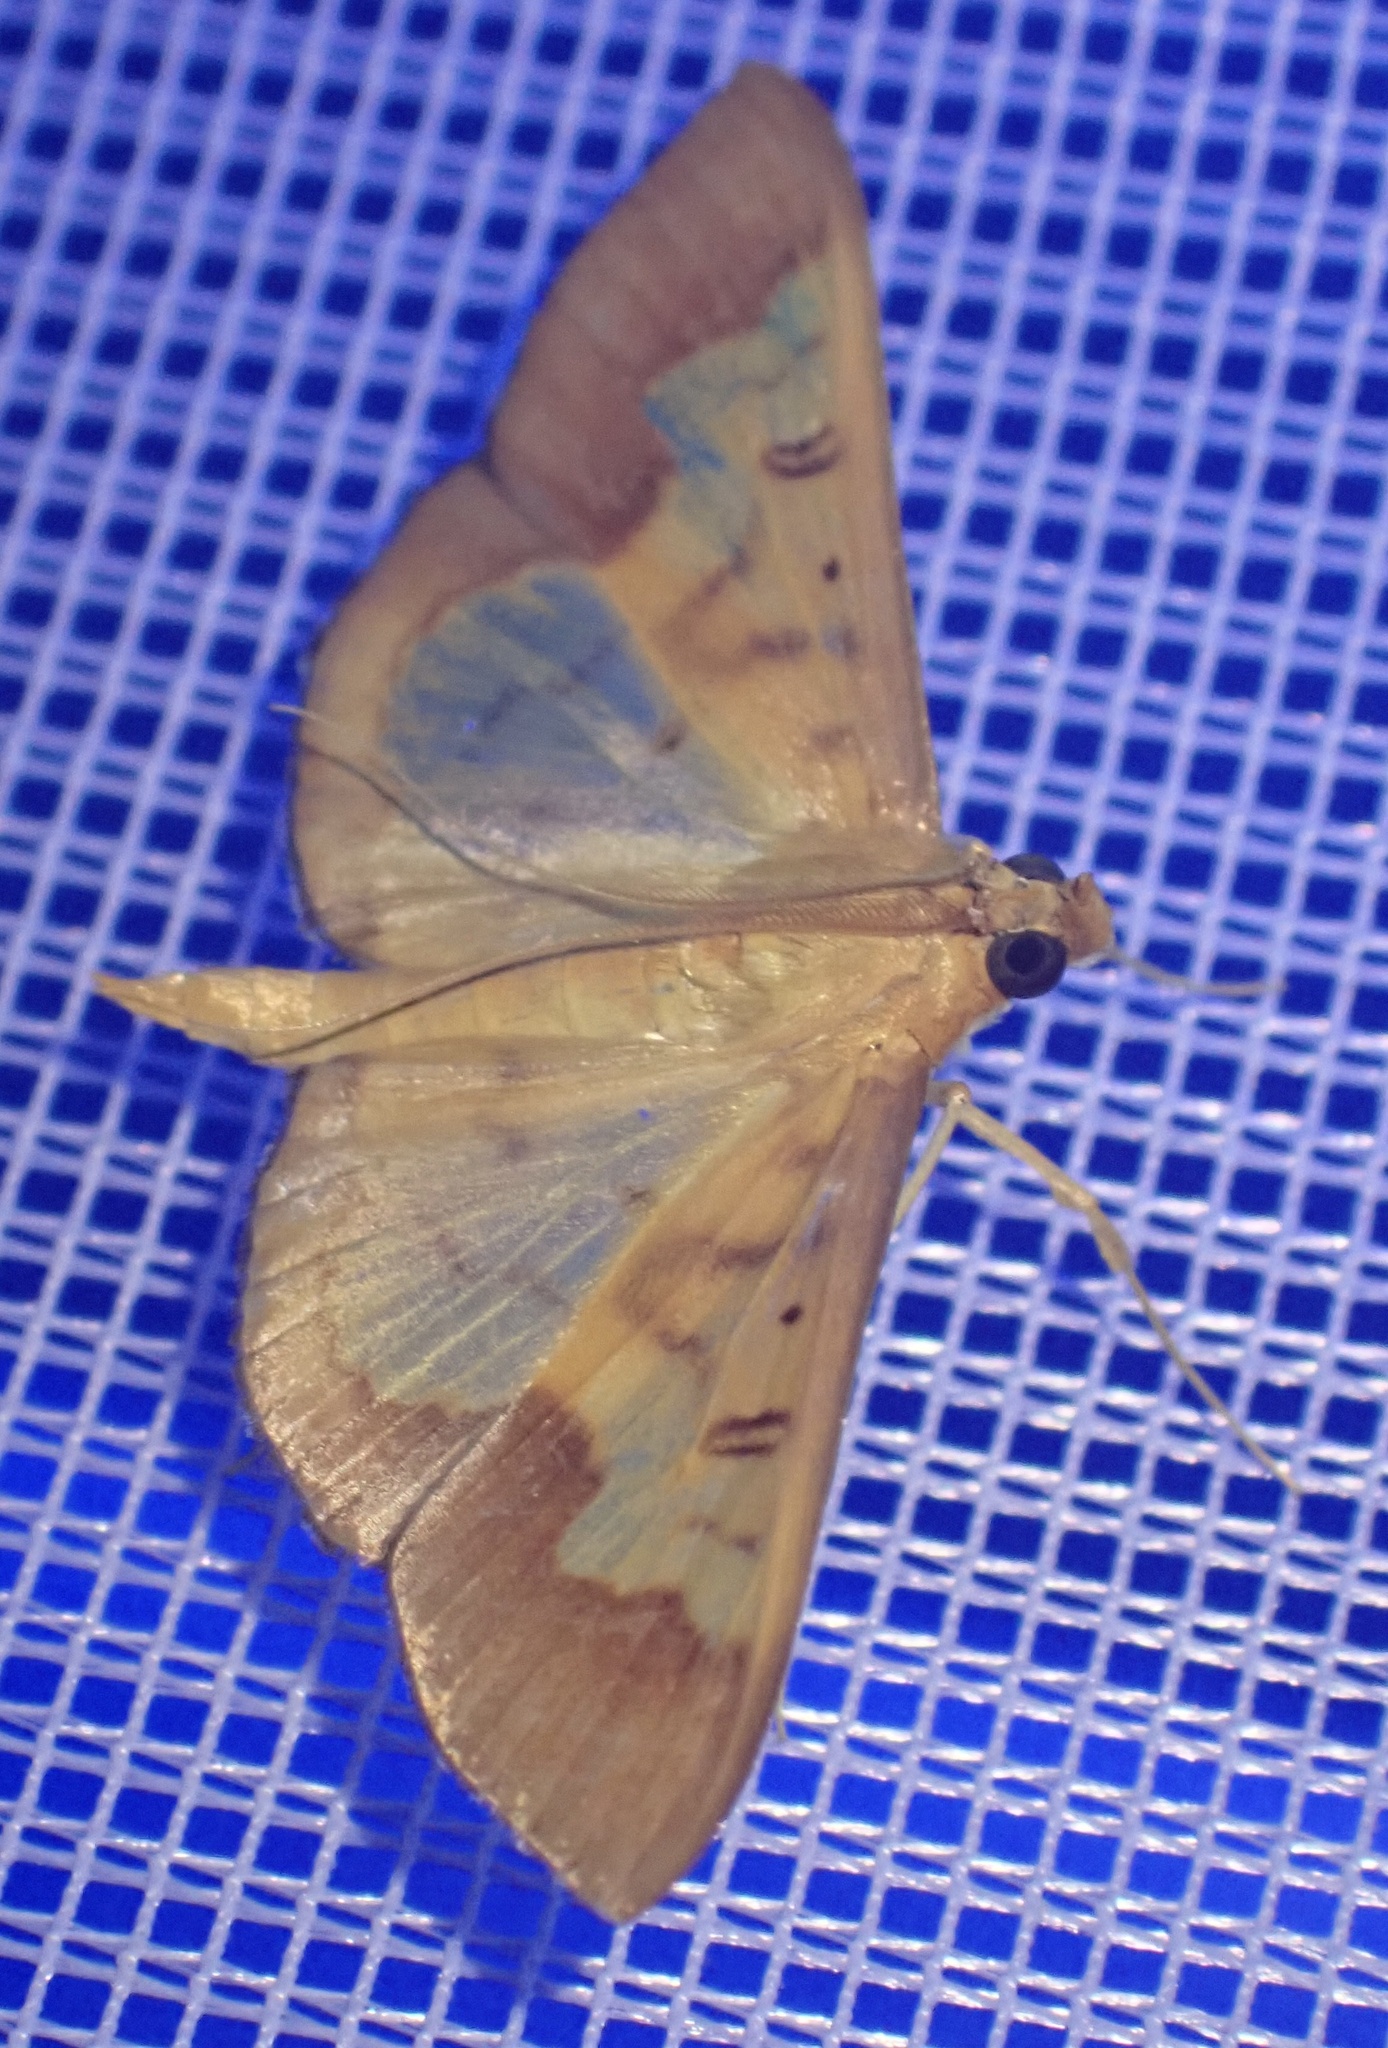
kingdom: Animalia
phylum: Arthropoda
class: Insecta
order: Lepidoptera
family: Crambidae
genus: Meroctena
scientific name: Meroctena staintonii
